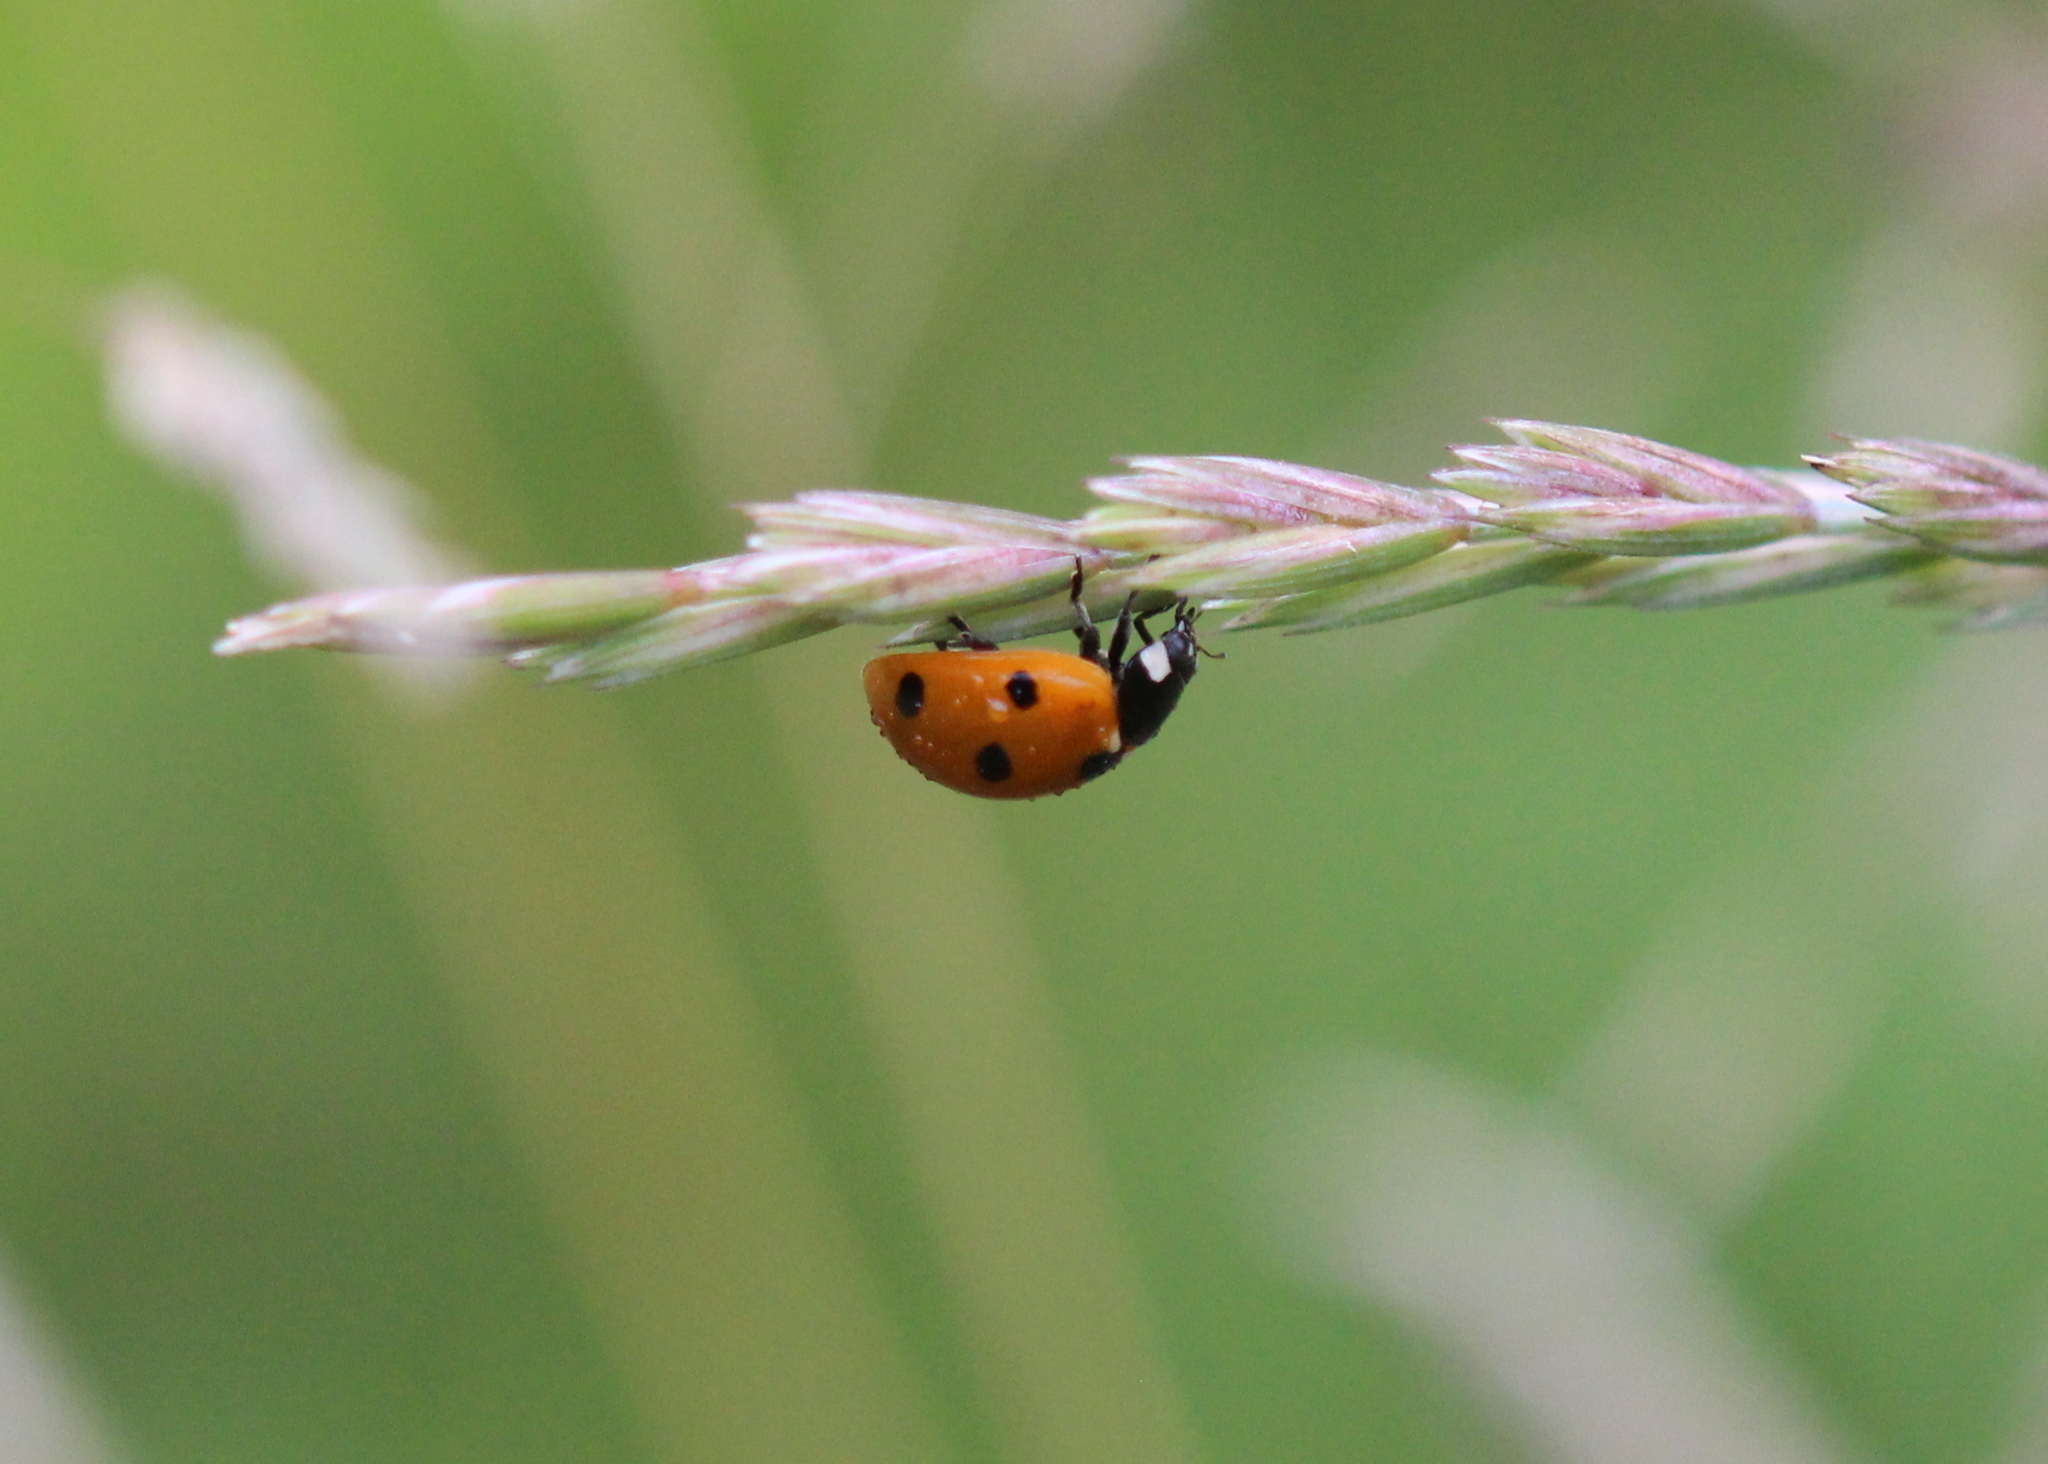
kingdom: Animalia
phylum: Arthropoda
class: Insecta
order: Coleoptera
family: Coccinellidae
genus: Coccinella
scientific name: Coccinella septempunctata
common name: Sevenspotted lady beetle
